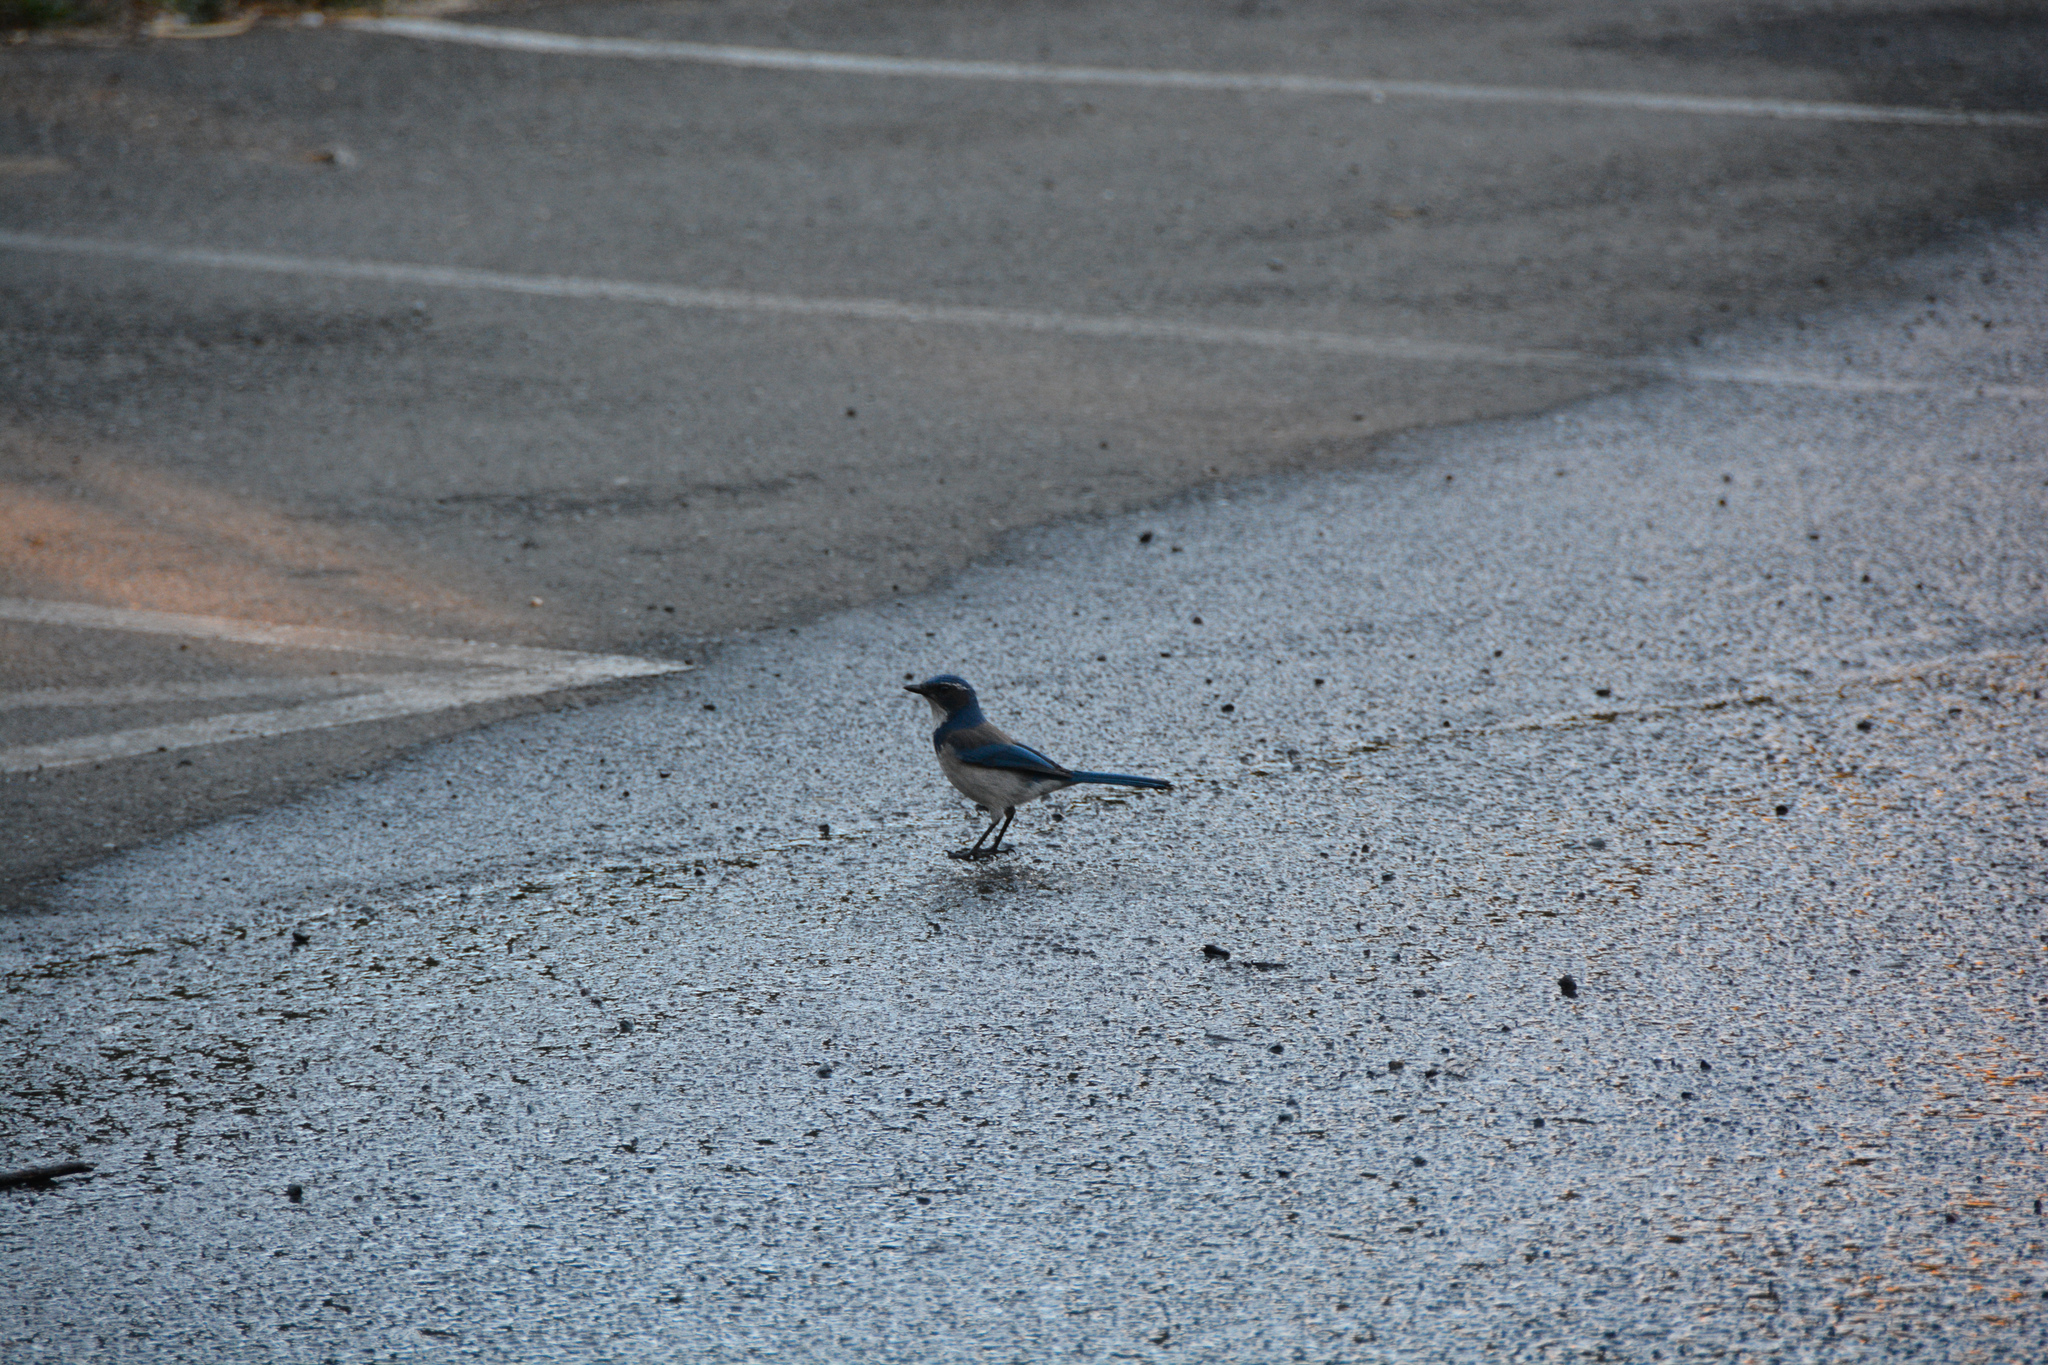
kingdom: Animalia
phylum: Chordata
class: Aves
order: Passeriformes
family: Corvidae
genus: Aphelocoma
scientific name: Aphelocoma californica
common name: California scrub-jay
